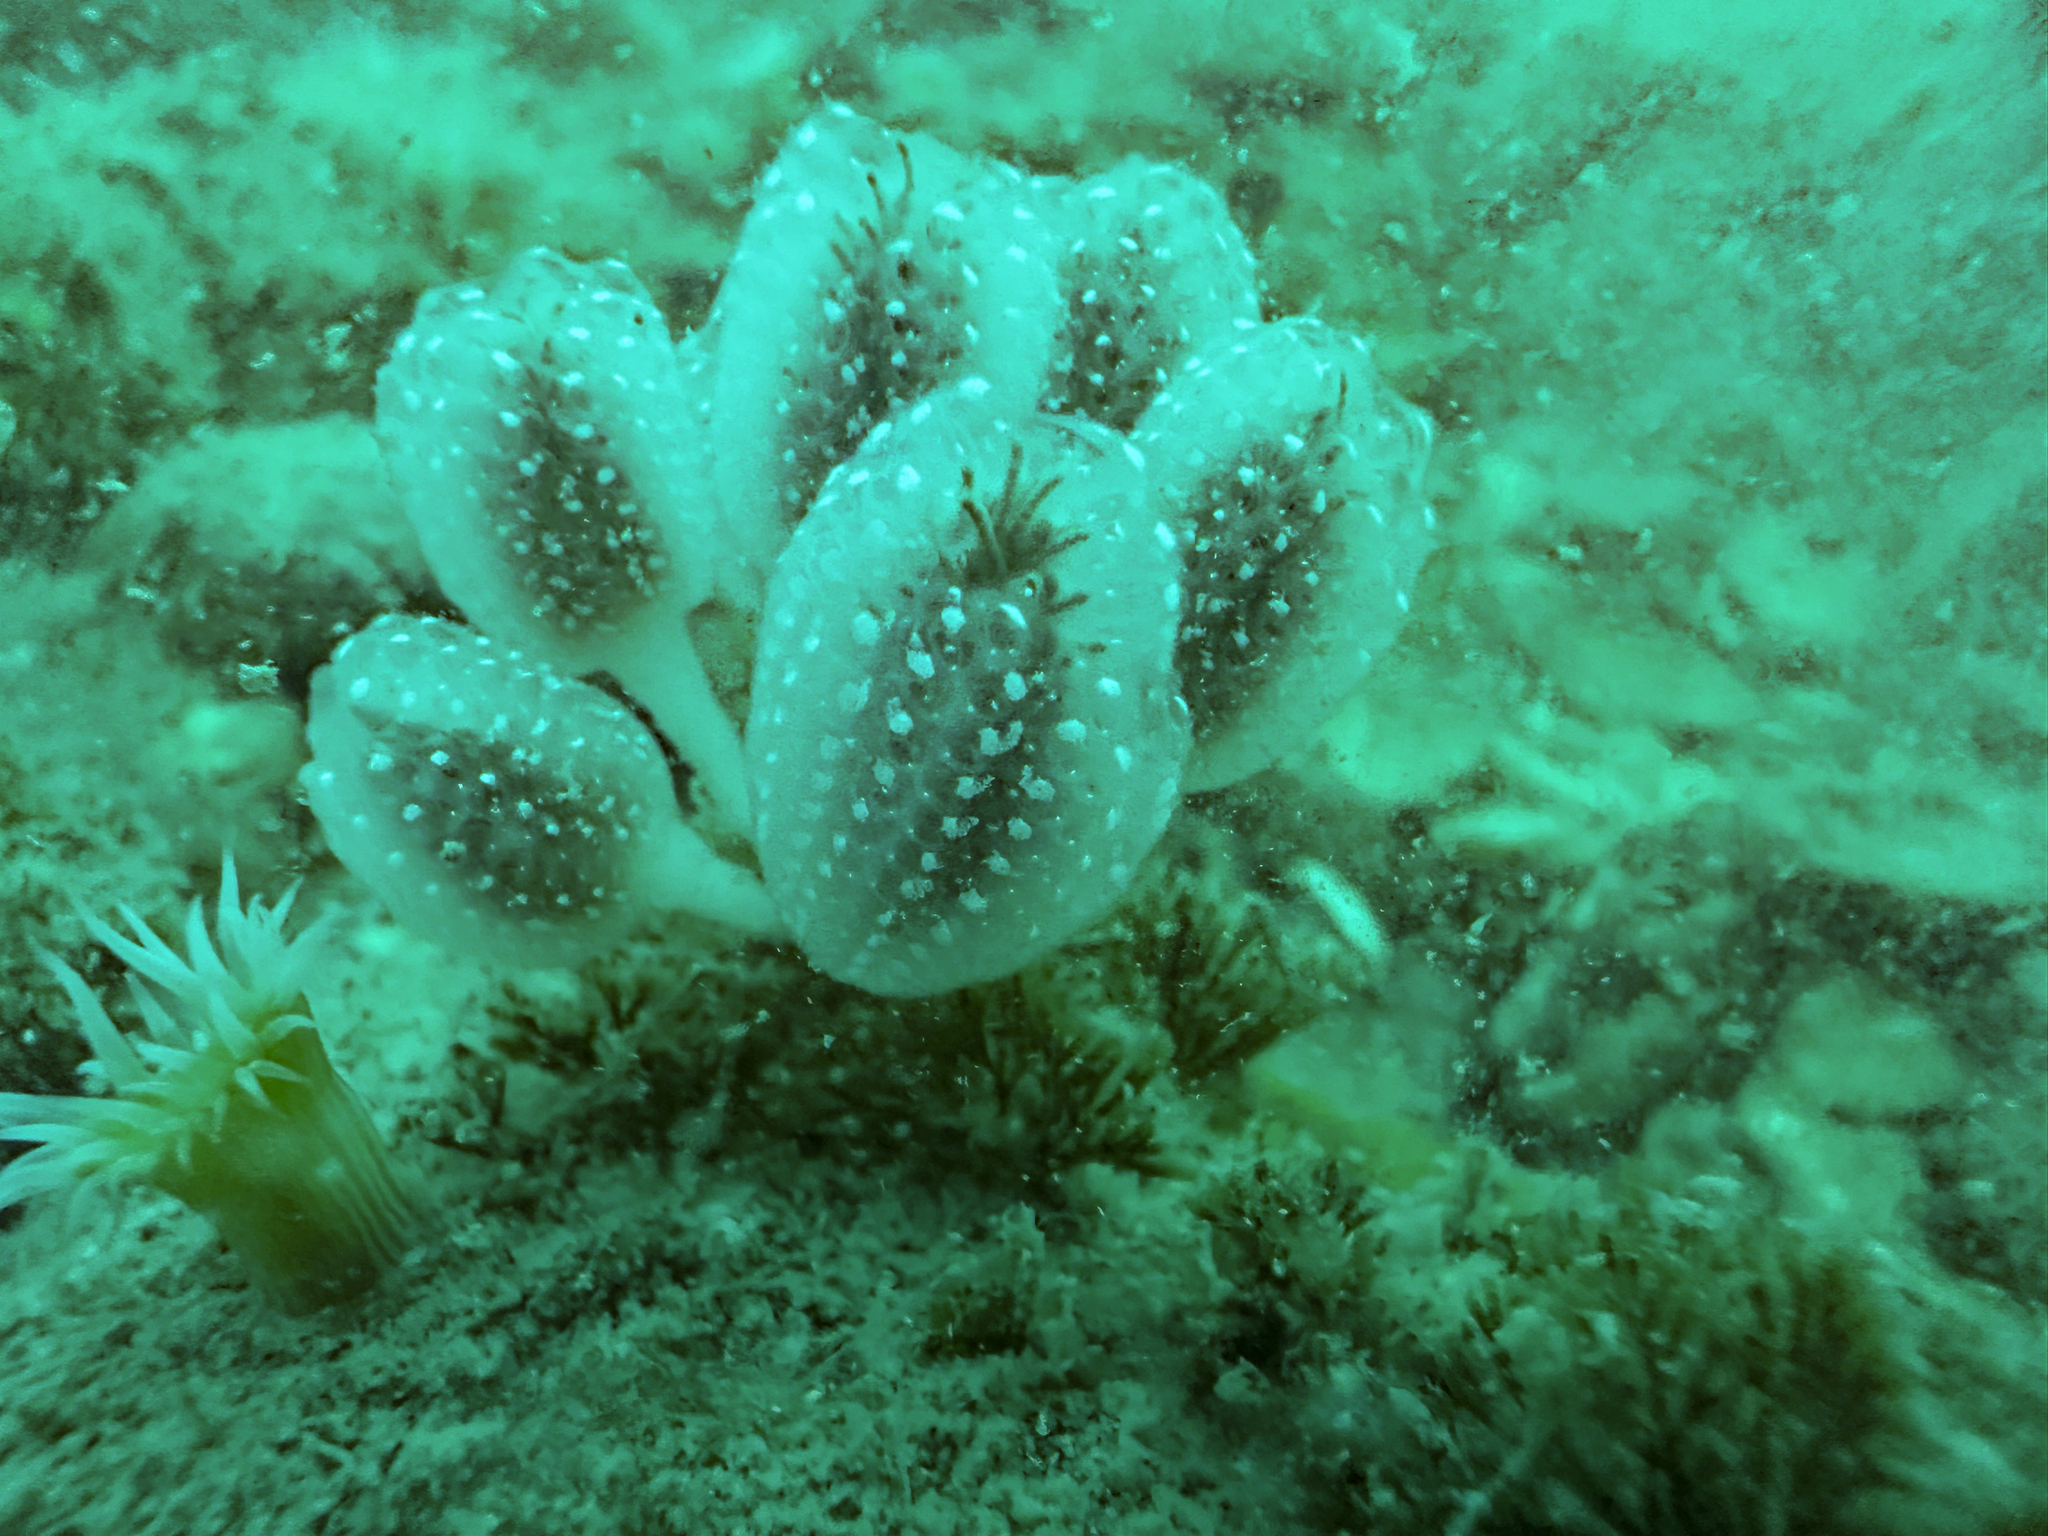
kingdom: Animalia
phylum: Chordata
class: Ascidiacea
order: Aplousobranchia
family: Holozoidae
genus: Sycozoa
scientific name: Sycozoa sigillinoides
